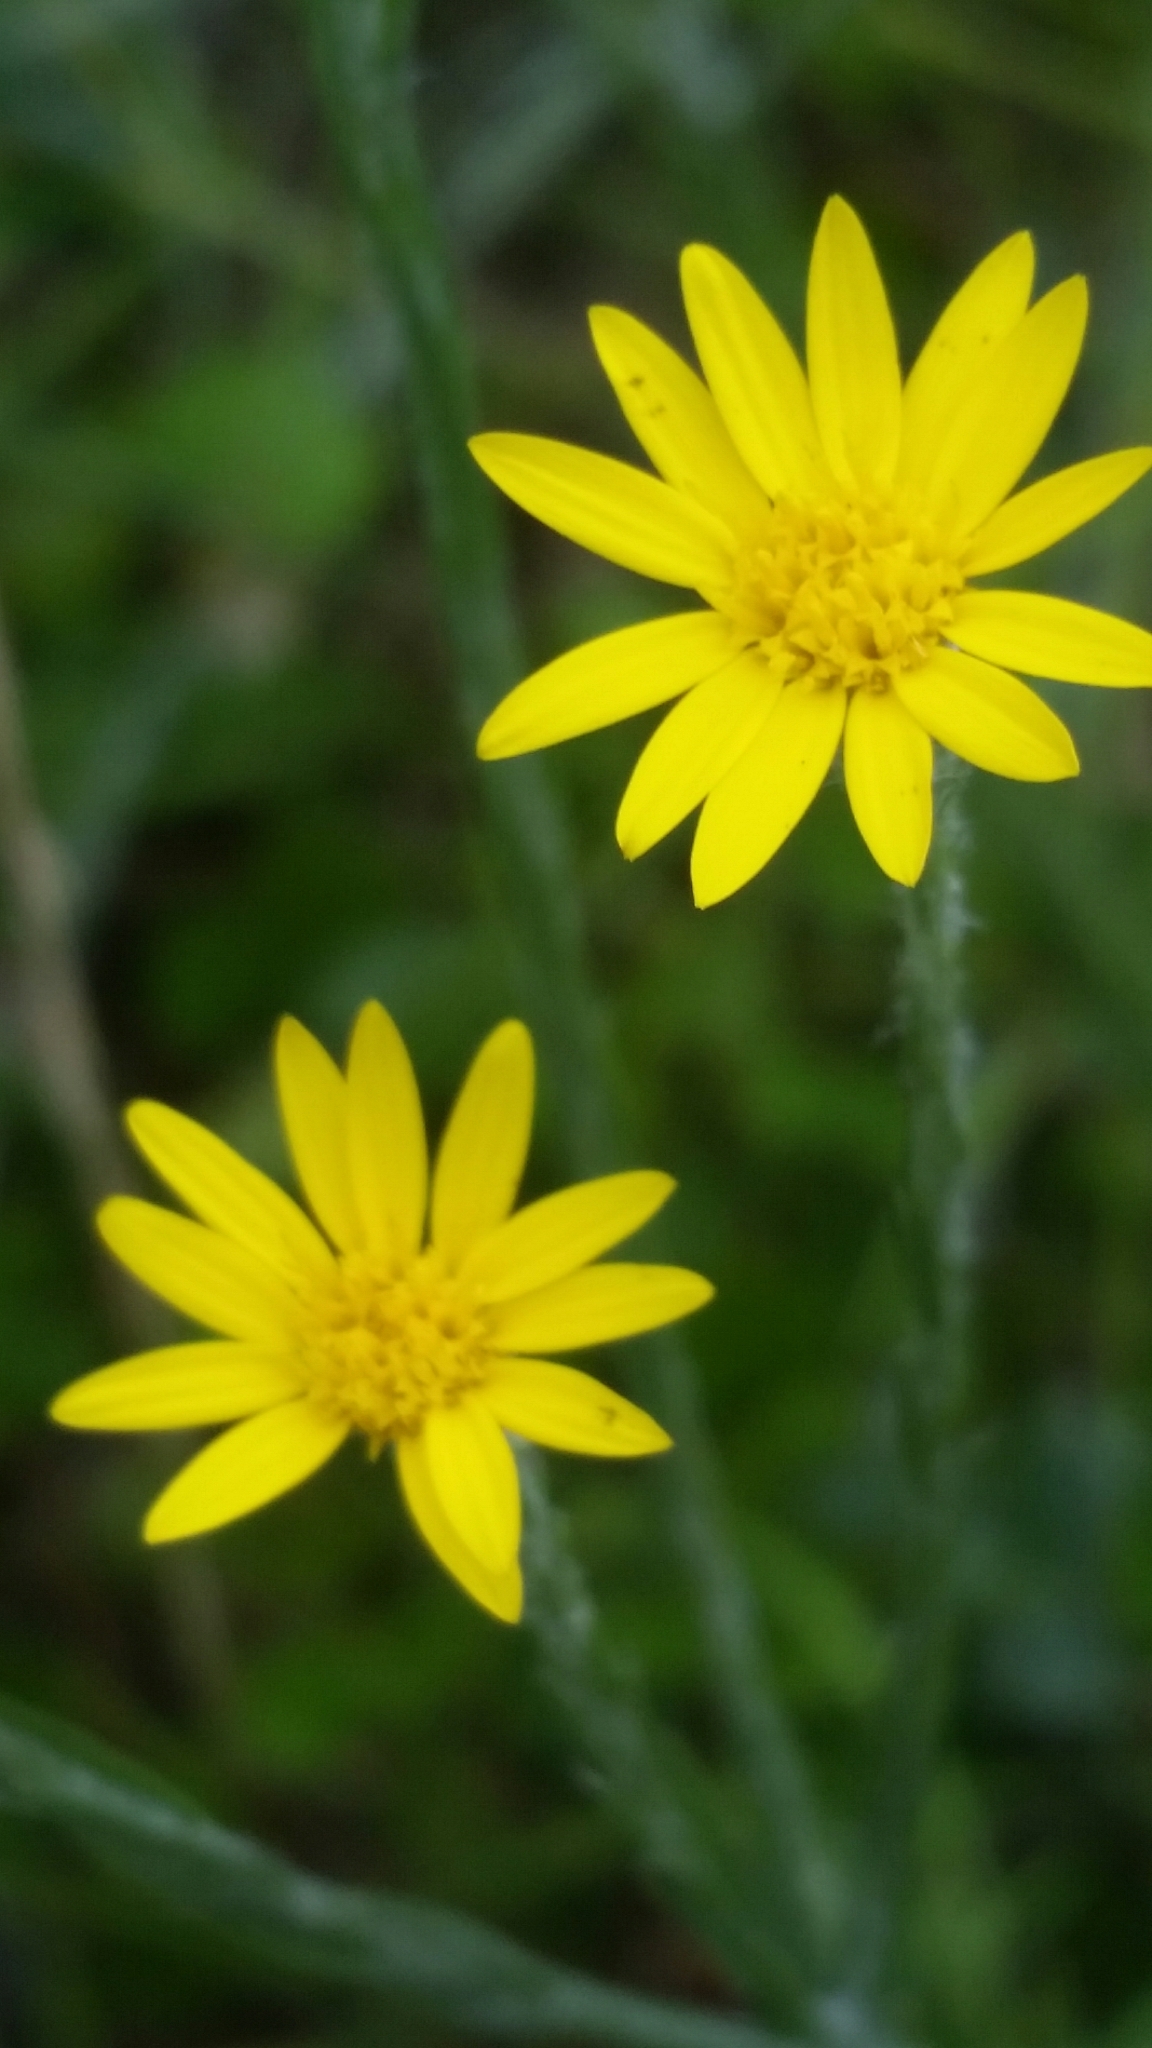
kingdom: Plantae
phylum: Tracheophyta
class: Magnoliopsida
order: Asterales
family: Asteraceae
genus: Pityopsis
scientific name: Pityopsis tracyi
